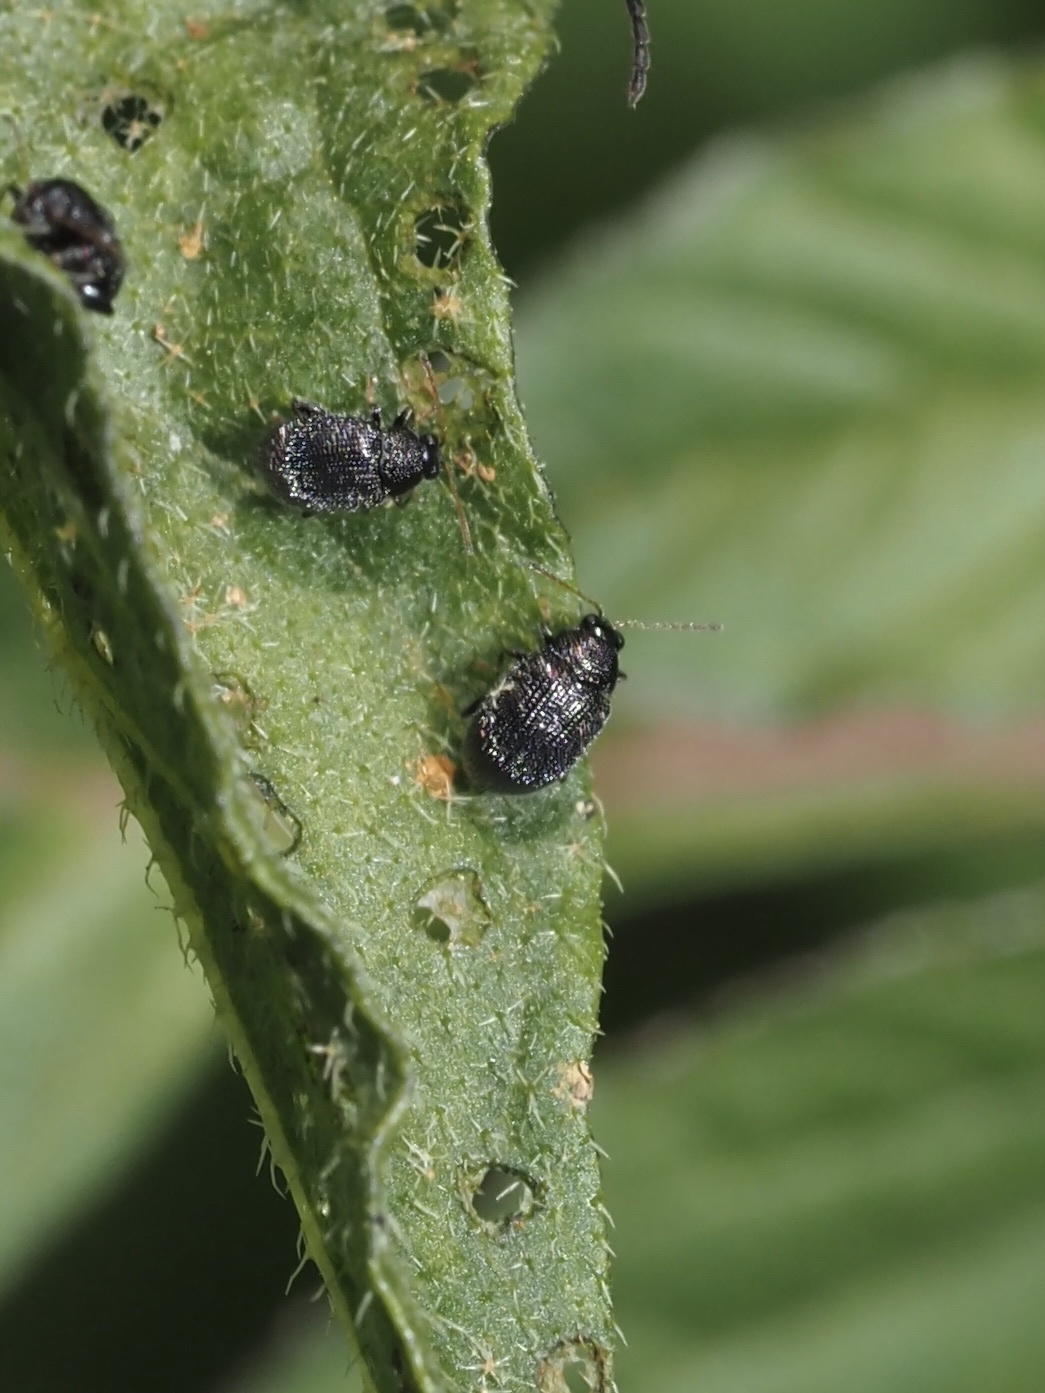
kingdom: Animalia
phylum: Arthropoda
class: Insecta
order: Coleoptera
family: Chrysomelidae
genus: Epitrix
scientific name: Epitrix fuscula
